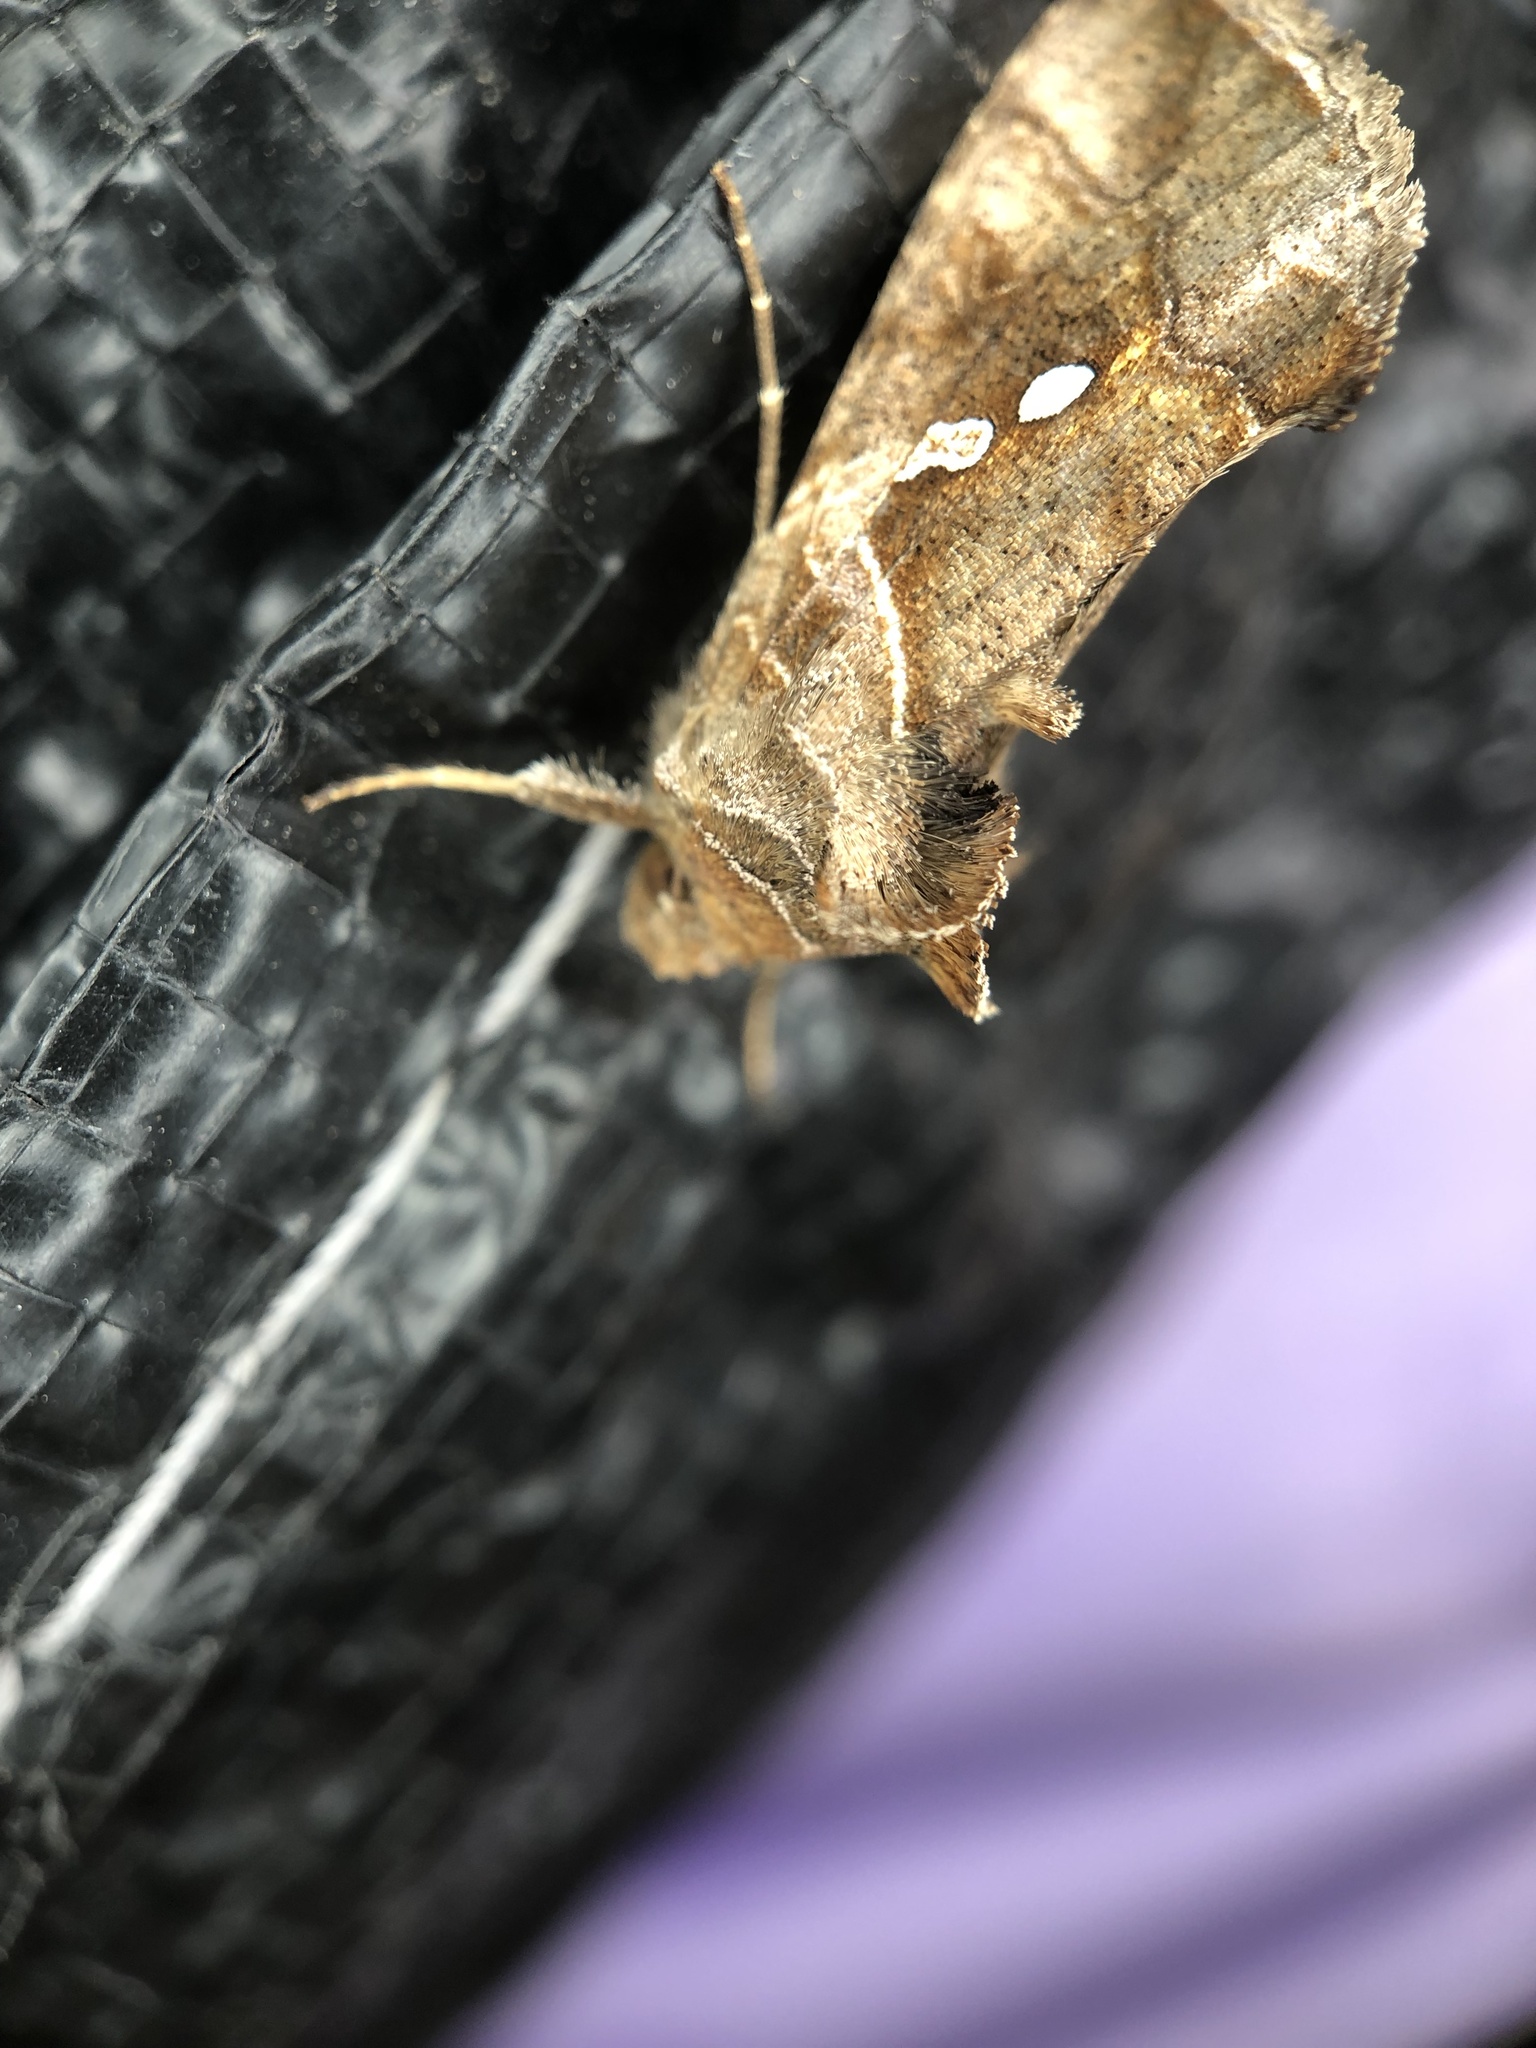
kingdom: Animalia
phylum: Arthropoda
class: Insecta
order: Lepidoptera
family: Noctuidae
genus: Chrysodeixis
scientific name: Chrysodeixis eriosoma
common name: Green garden looper
